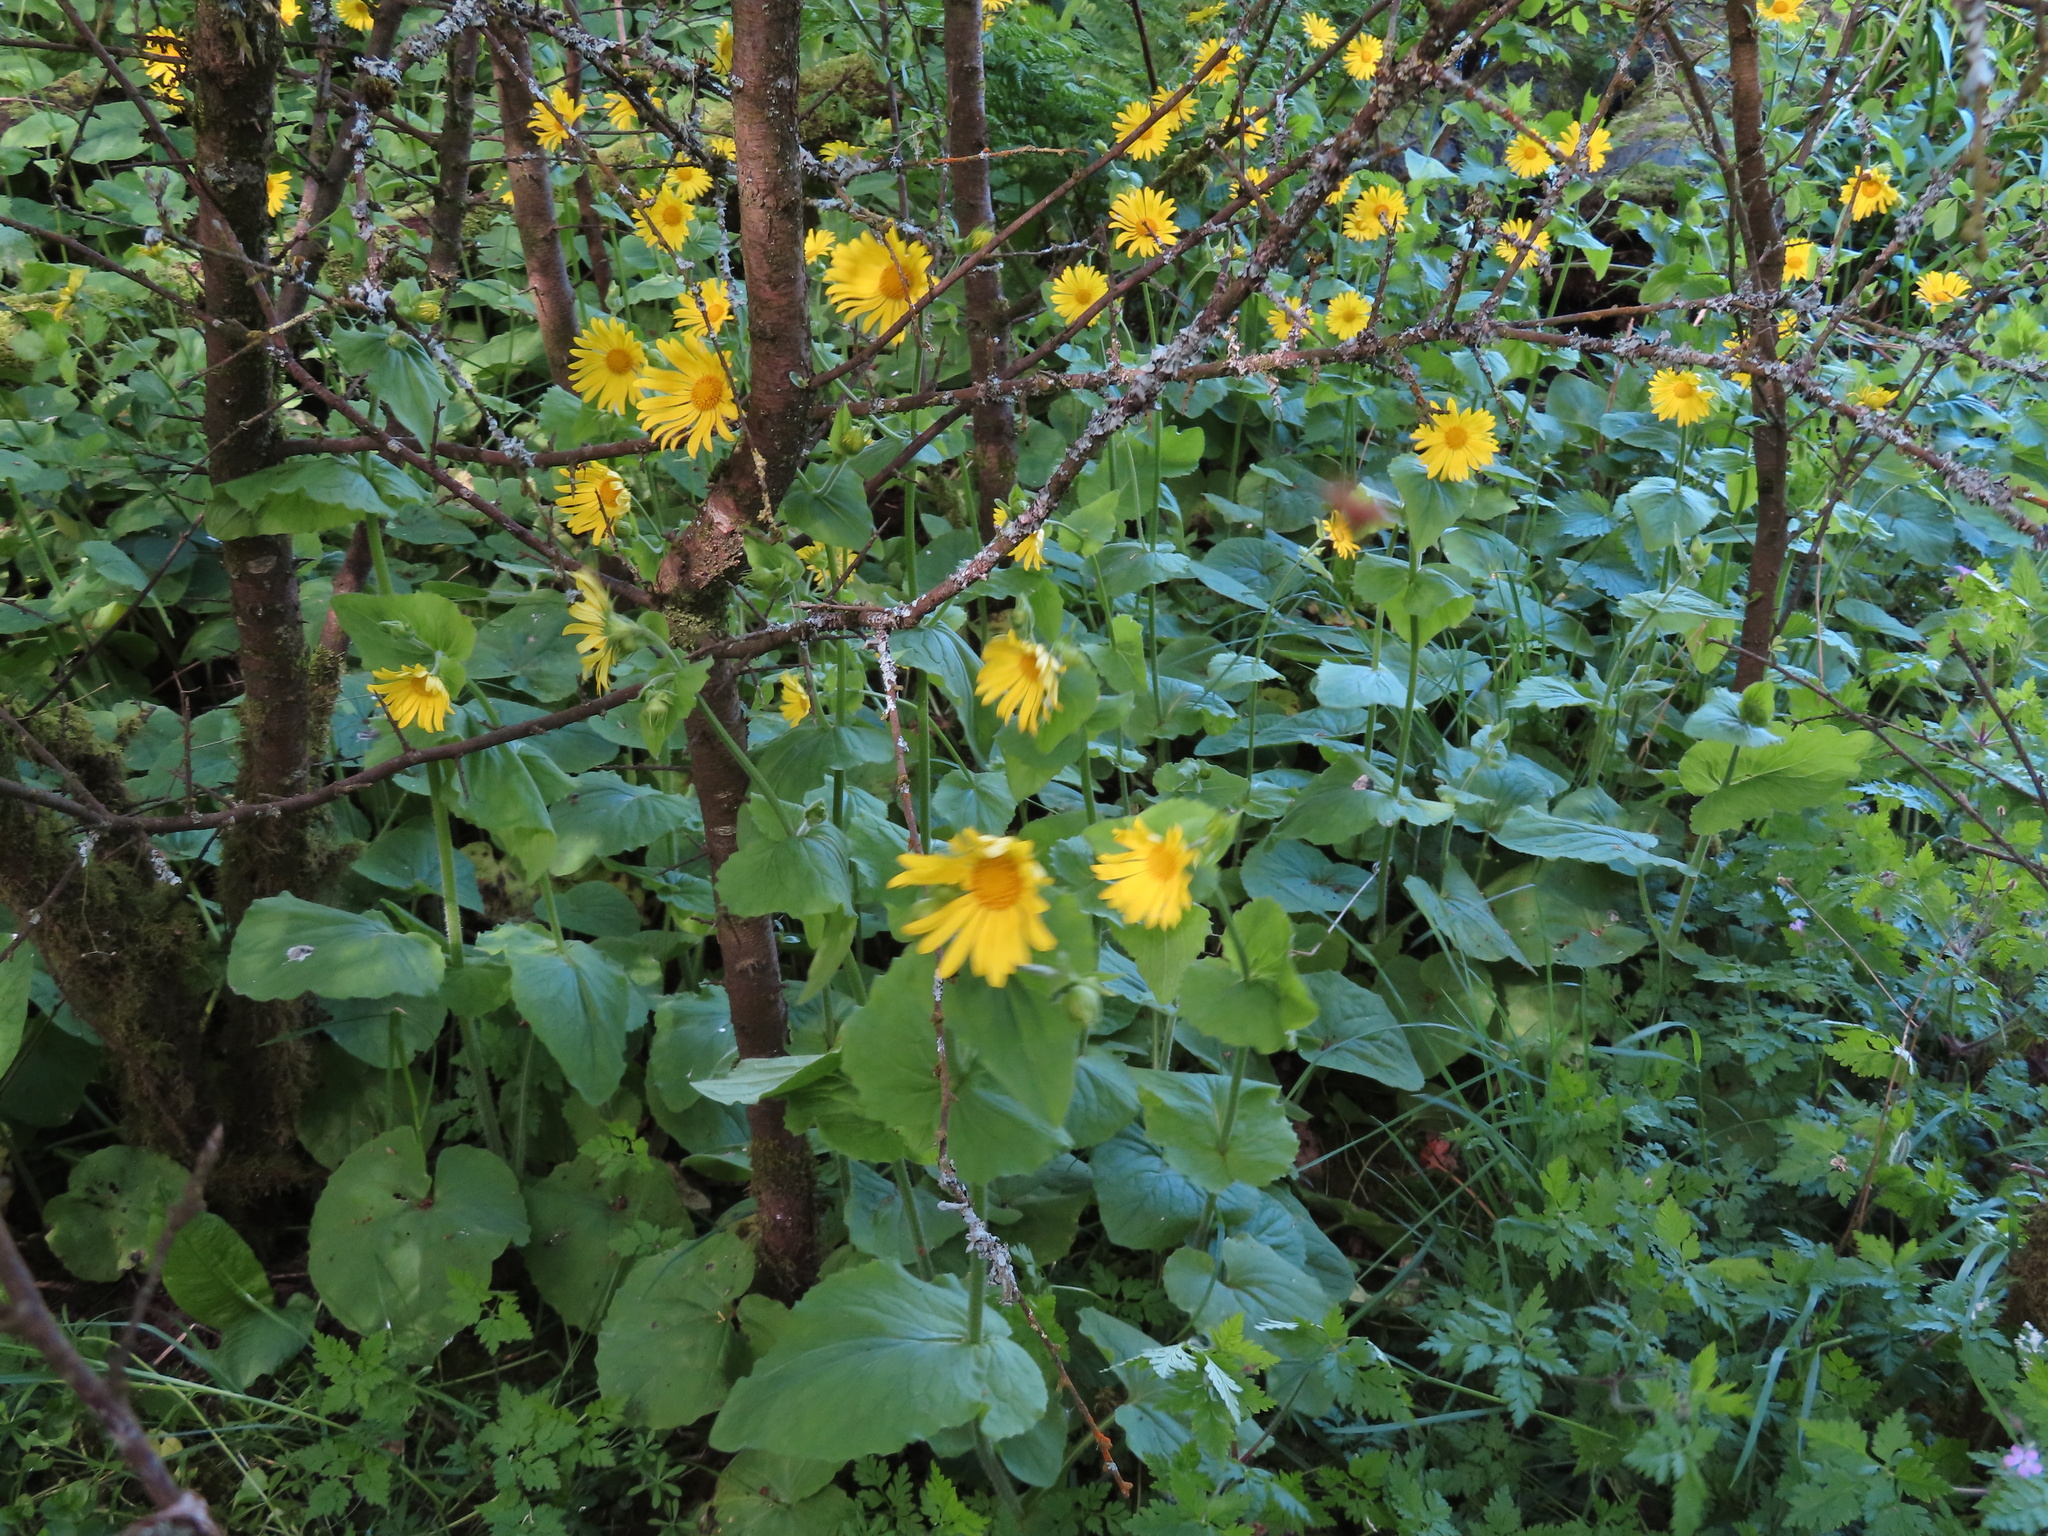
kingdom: Plantae
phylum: Tracheophyta
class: Magnoliopsida
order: Asterales
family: Asteraceae
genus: Doronicum
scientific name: Doronicum pardalianches
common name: Leopard's-bane
